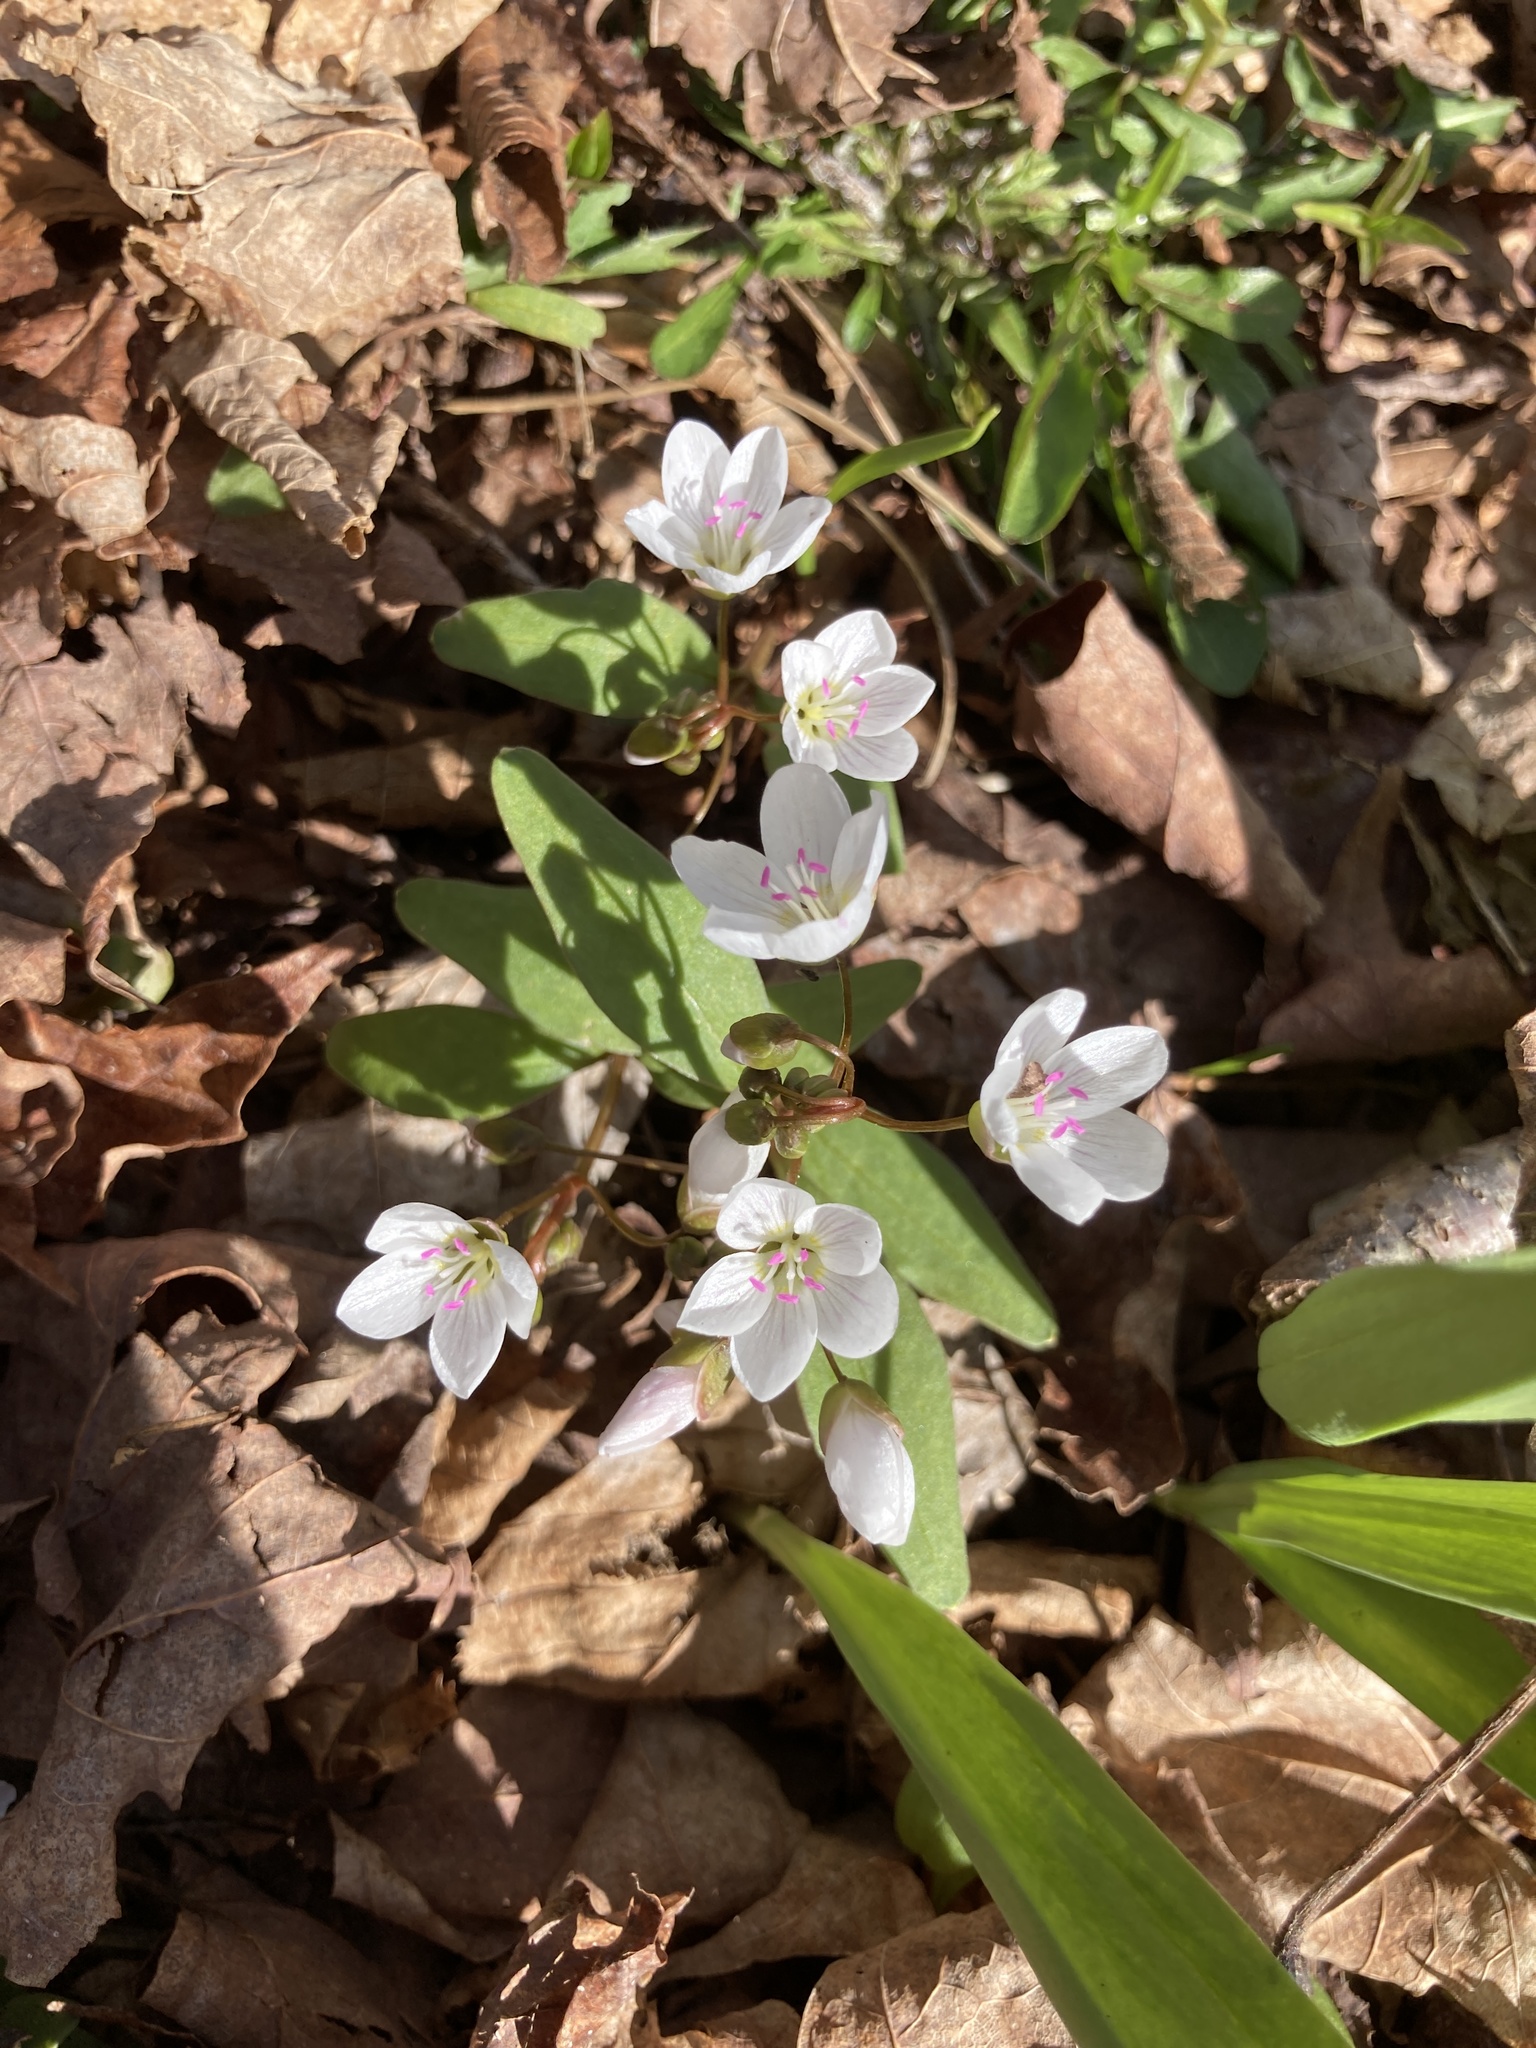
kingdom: Plantae
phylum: Tracheophyta
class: Magnoliopsida
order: Caryophyllales
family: Montiaceae
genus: Claytonia
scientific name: Claytonia caroliniana
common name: Carolina spring beauty
